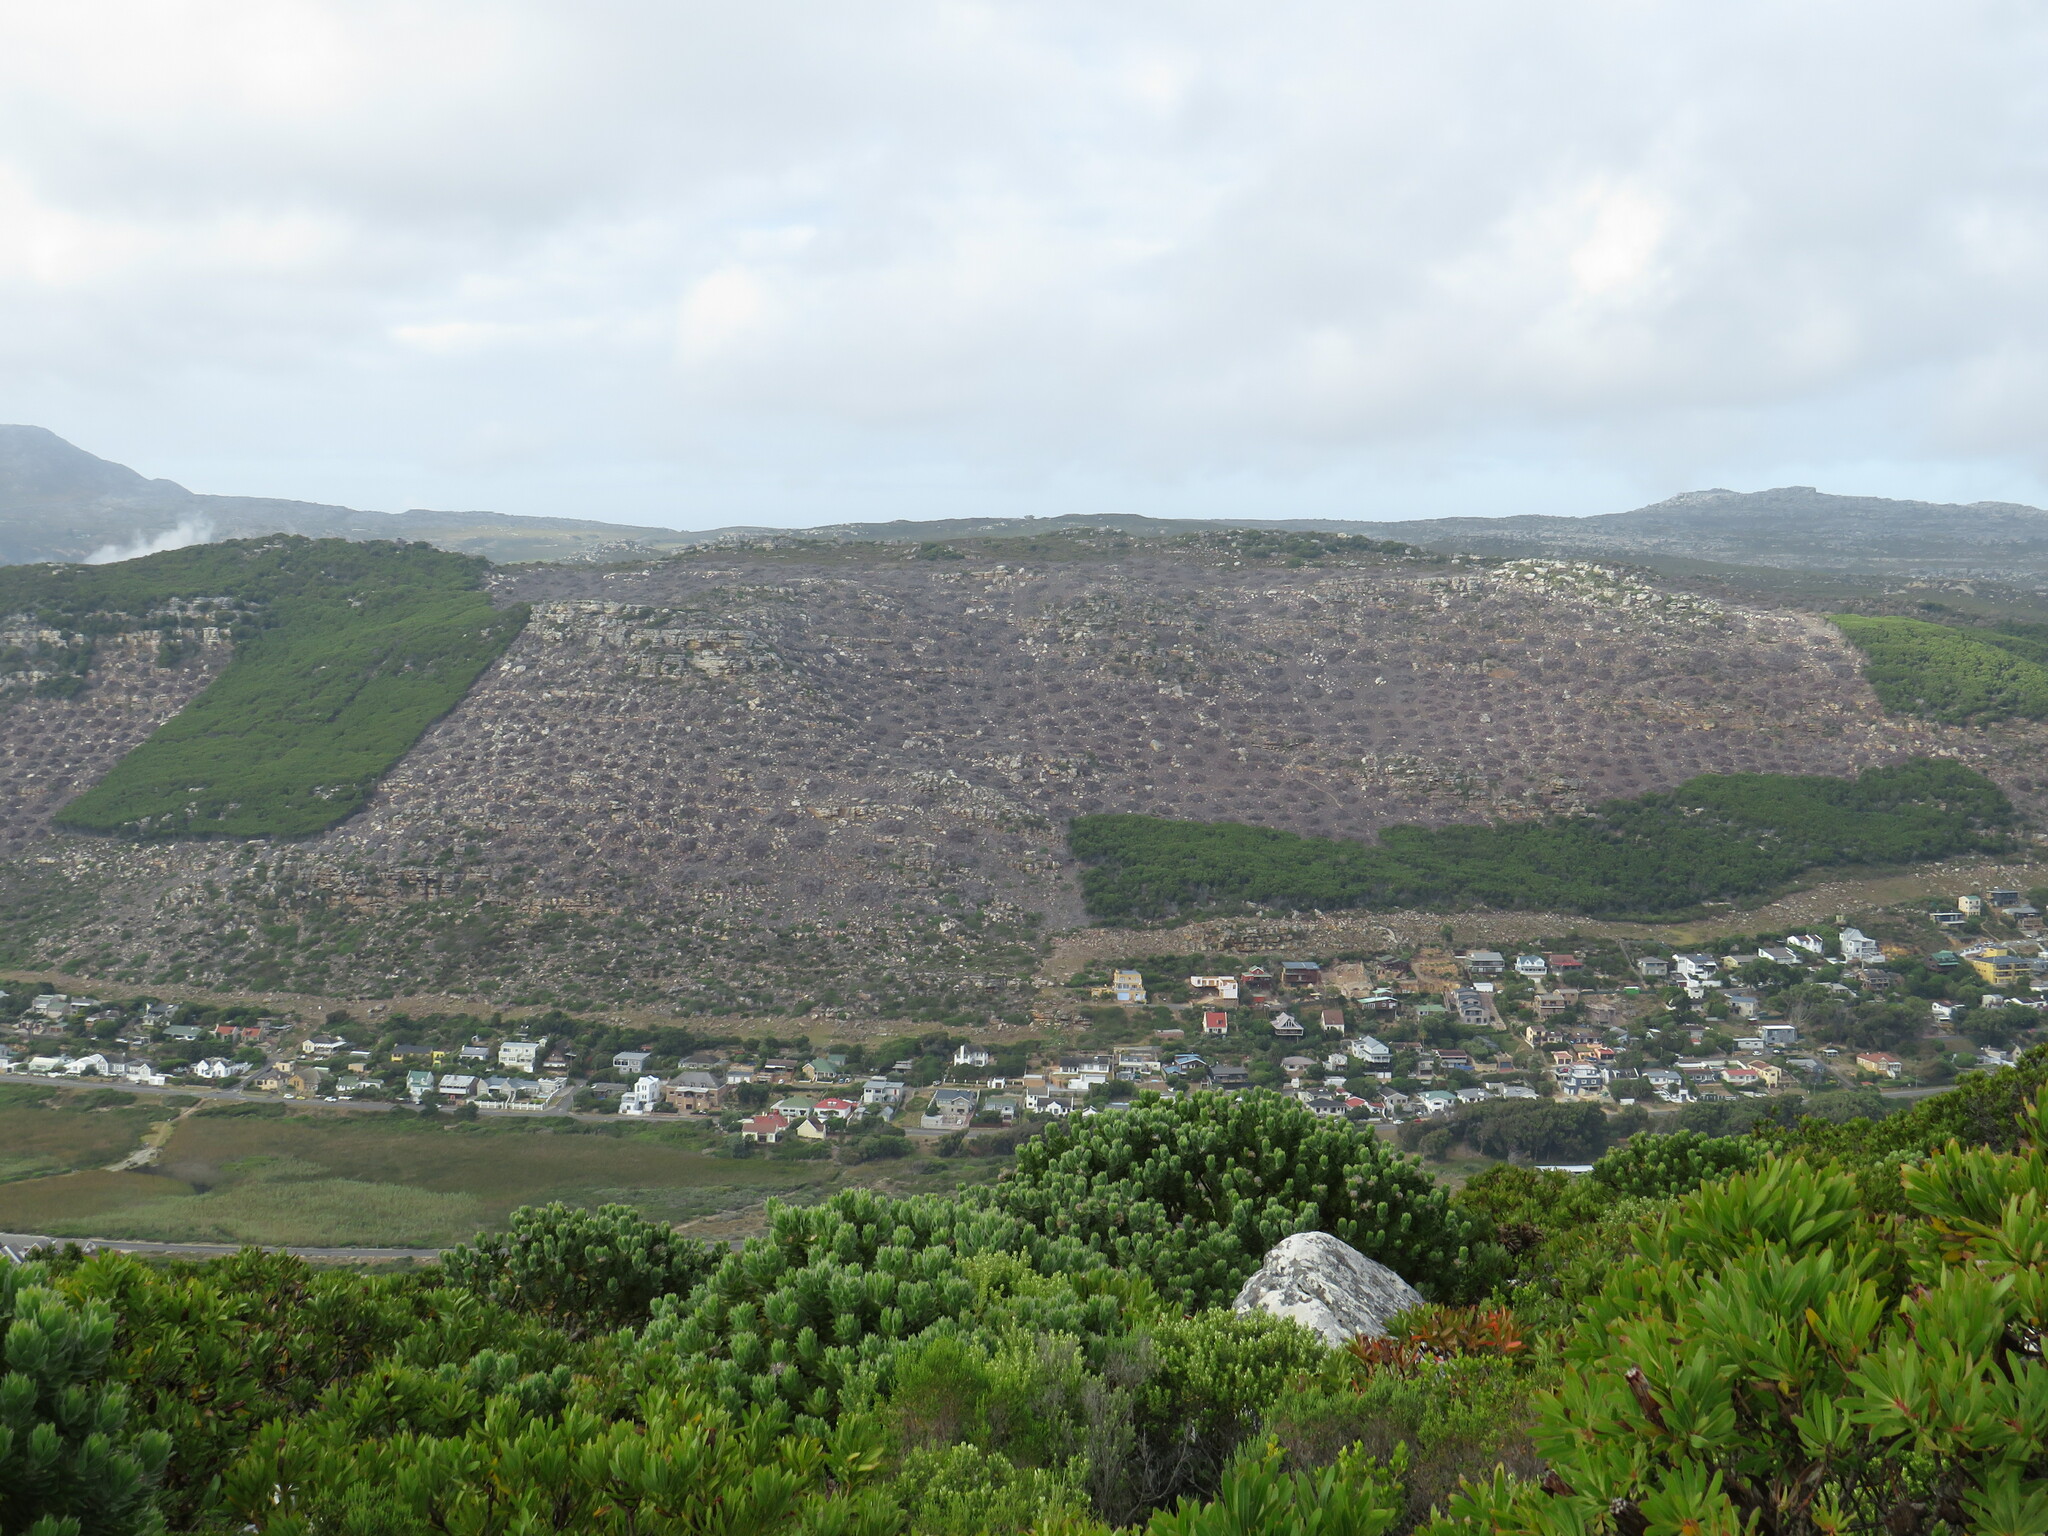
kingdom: Plantae
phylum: Tracheophyta
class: Magnoliopsida
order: Fabales
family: Fabaceae
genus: Acacia
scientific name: Acacia cyclops
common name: Coastal wattle
